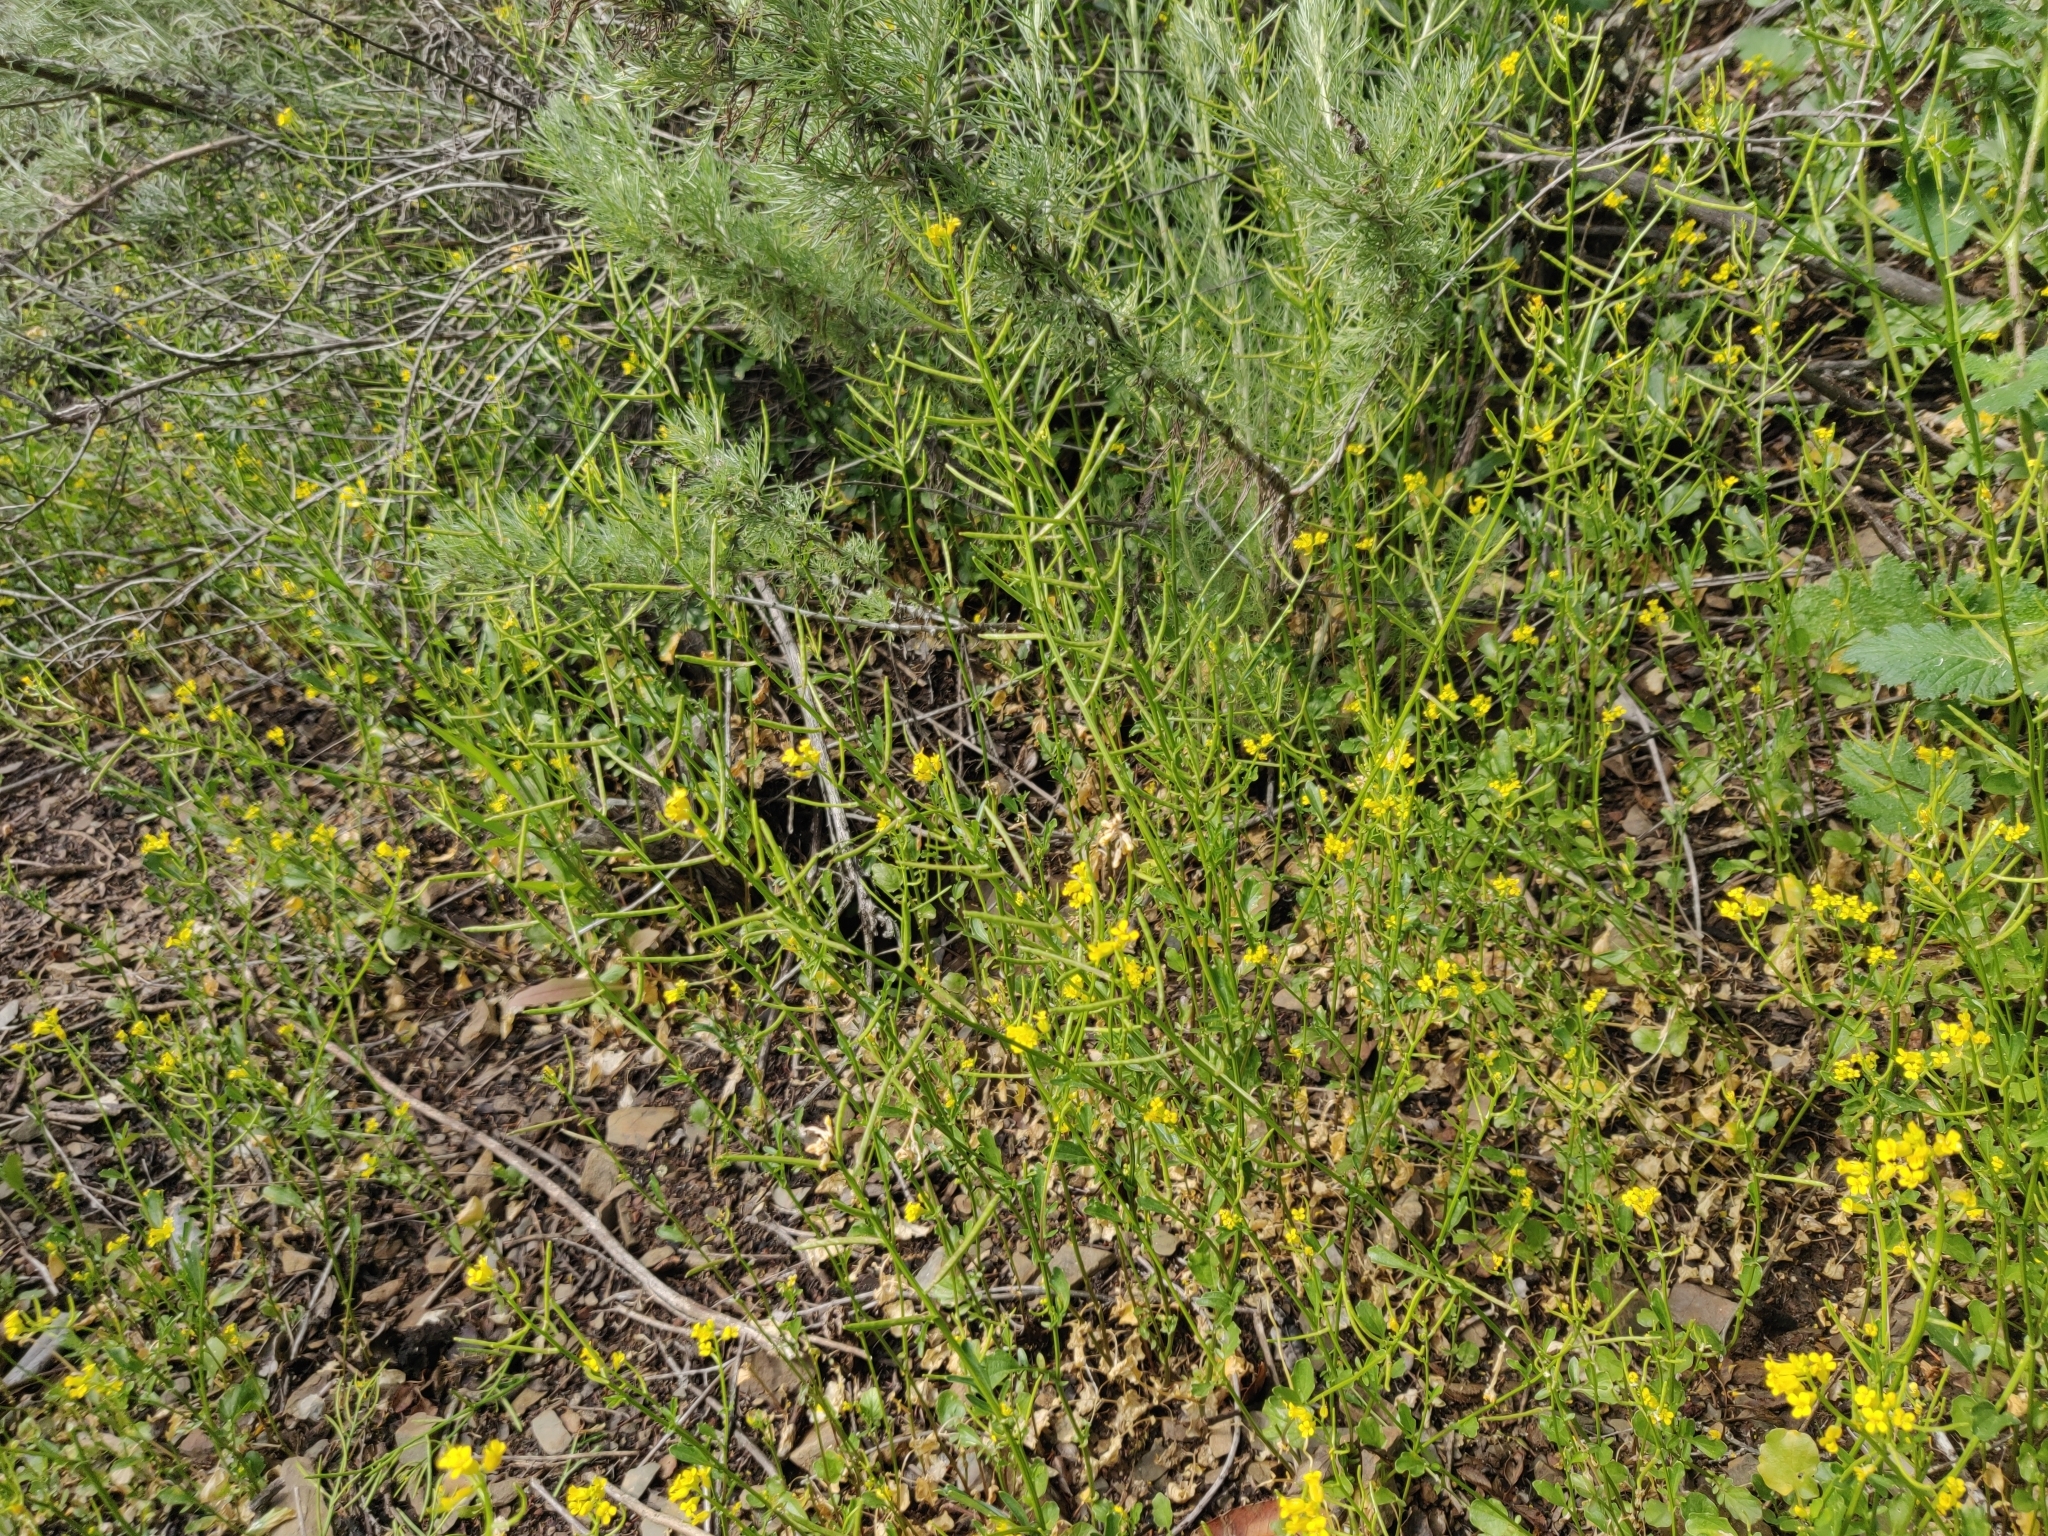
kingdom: Plantae
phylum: Tracheophyta
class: Magnoliopsida
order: Brassicales
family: Brassicaceae
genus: Barbarea
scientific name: Barbarea orthoceras
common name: American wintercress
